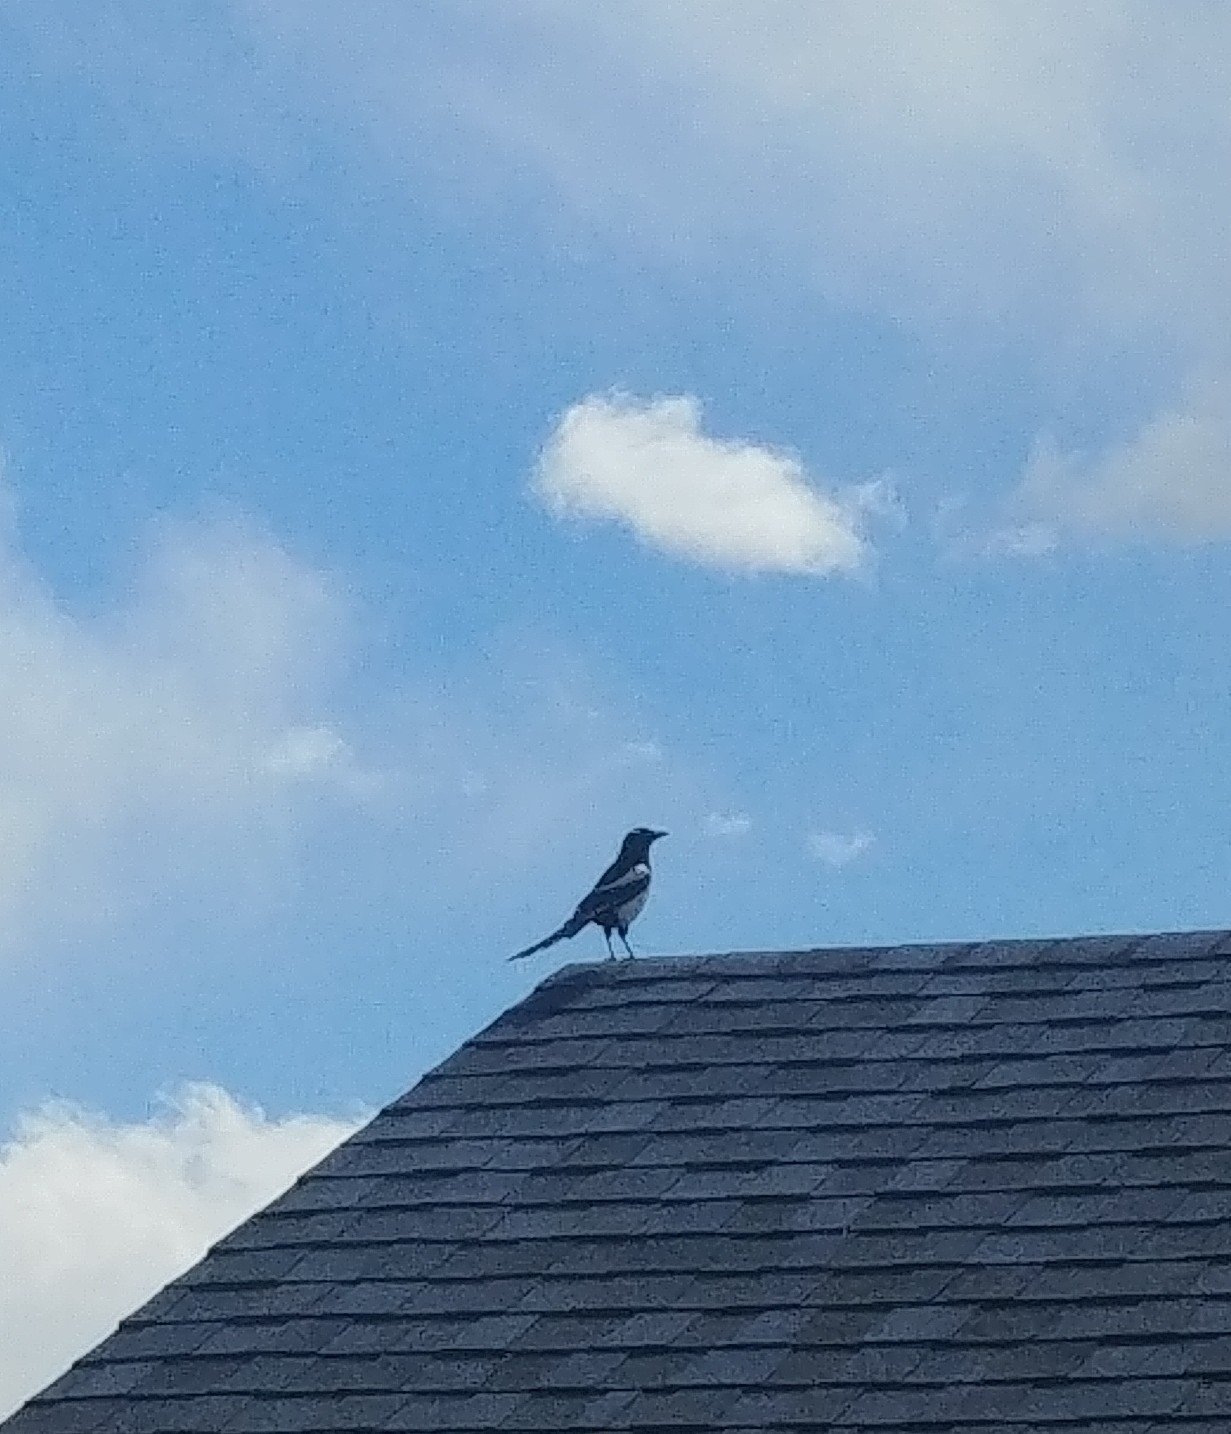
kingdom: Animalia
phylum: Chordata
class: Aves
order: Passeriformes
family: Corvidae
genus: Pica
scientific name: Pica hudsonia
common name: Black-billed magpie
